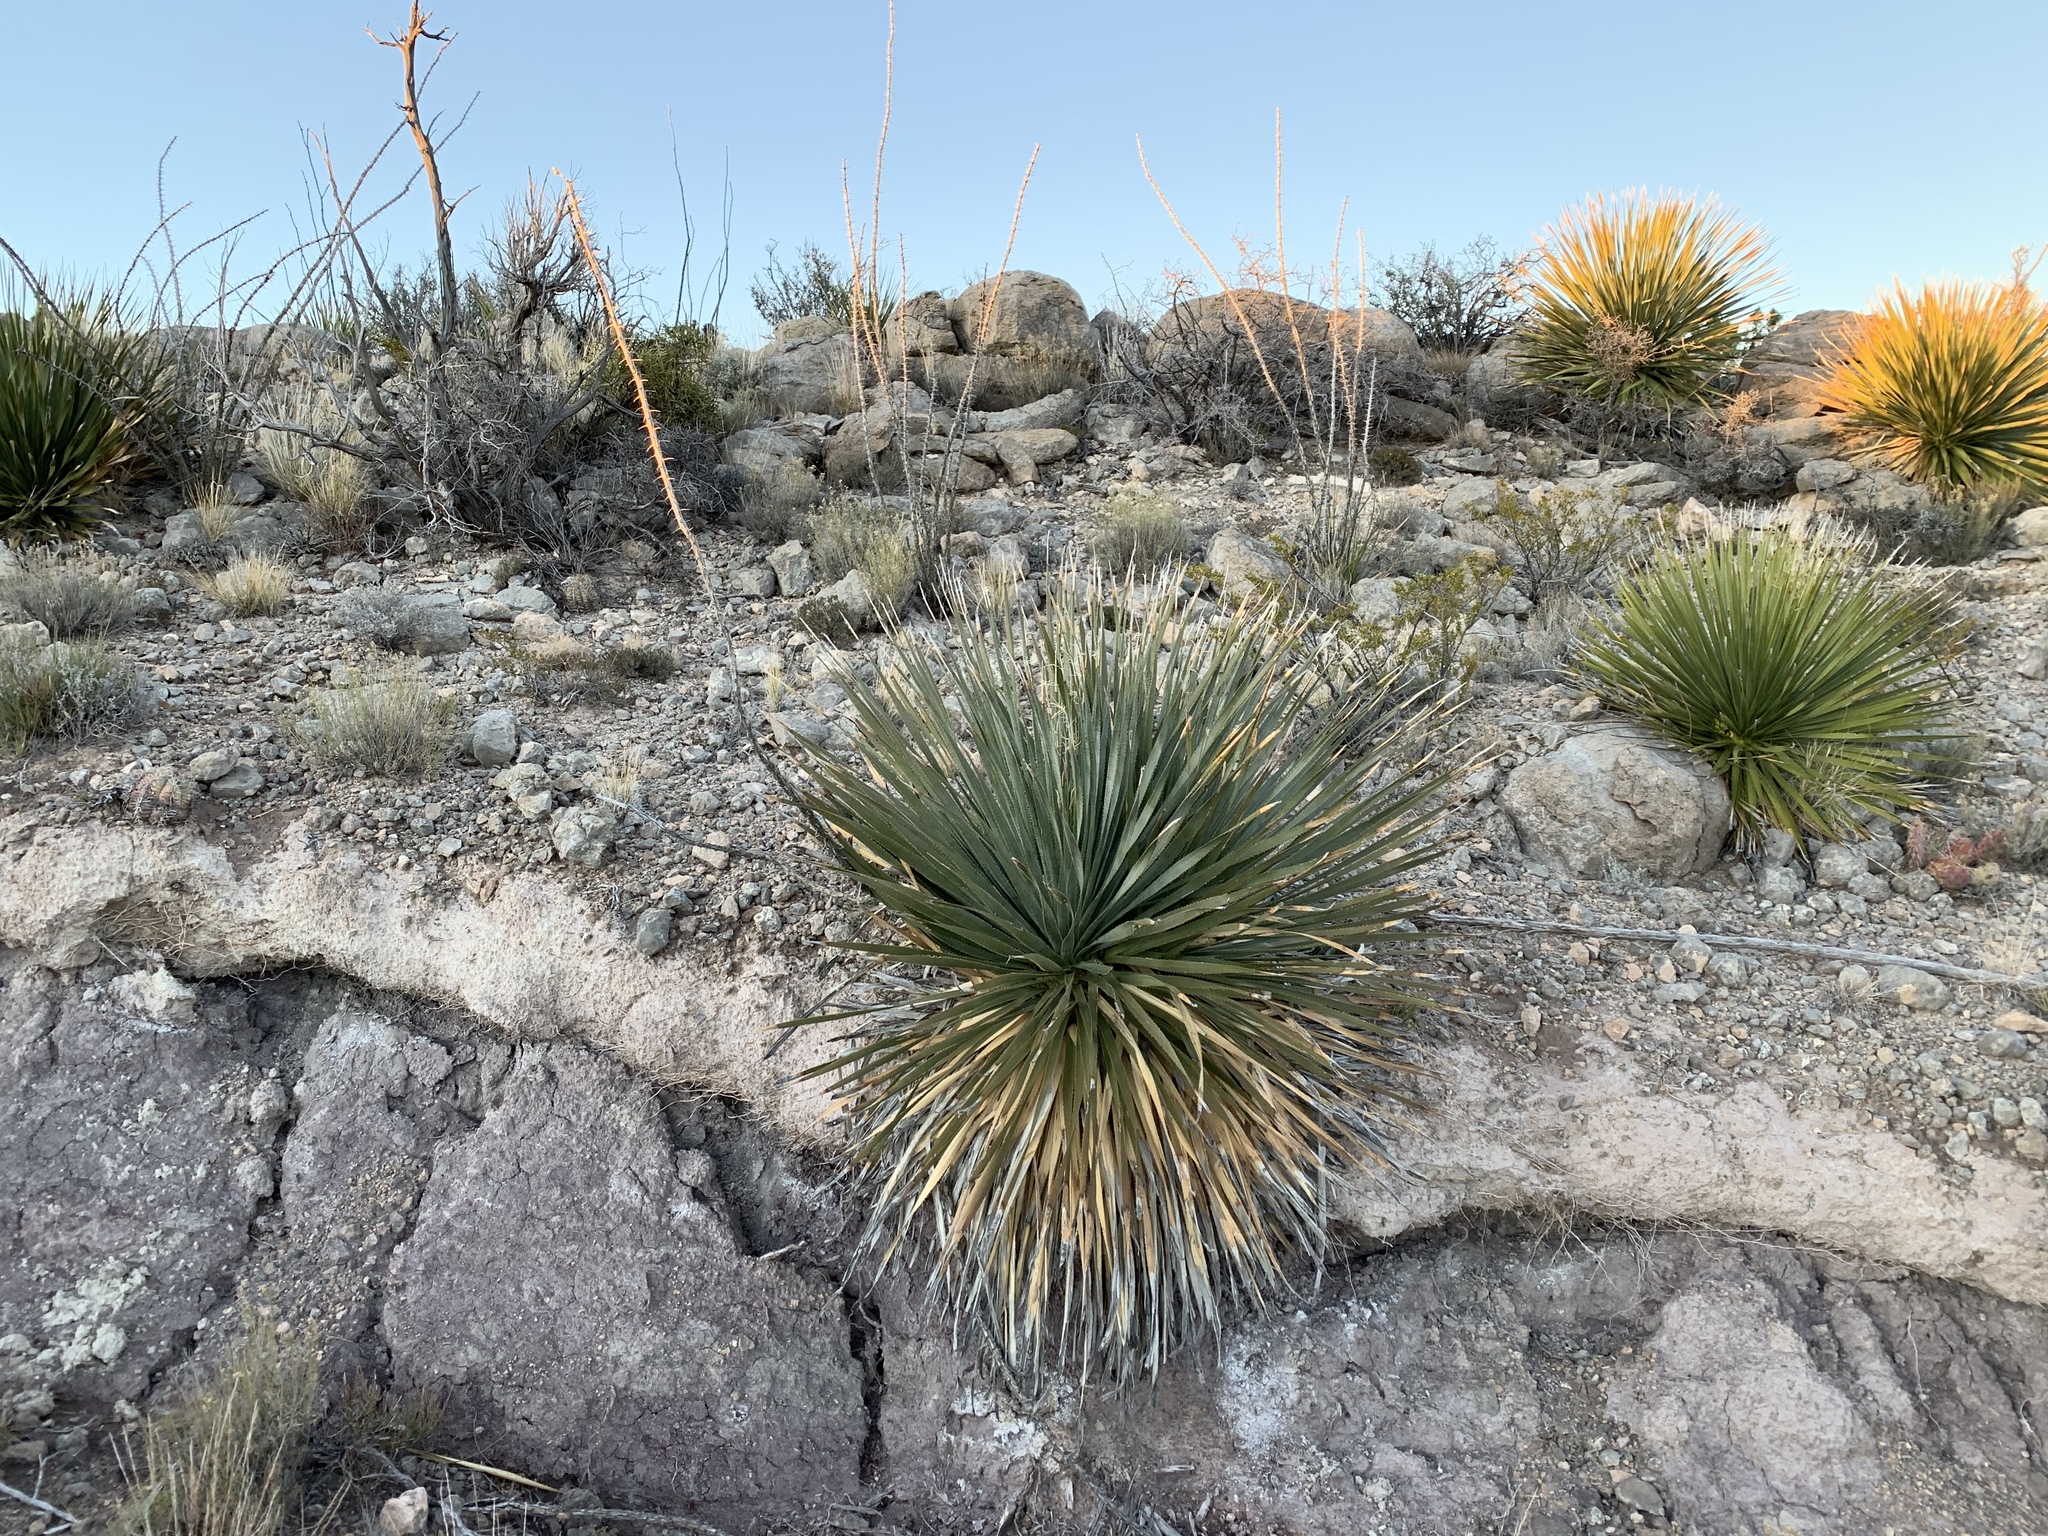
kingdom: Plantae
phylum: Tracheophyta
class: Liliopsida
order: Asparagales
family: Asparagaceae
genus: Dasylirion
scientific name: Dasylirion wheeleri
